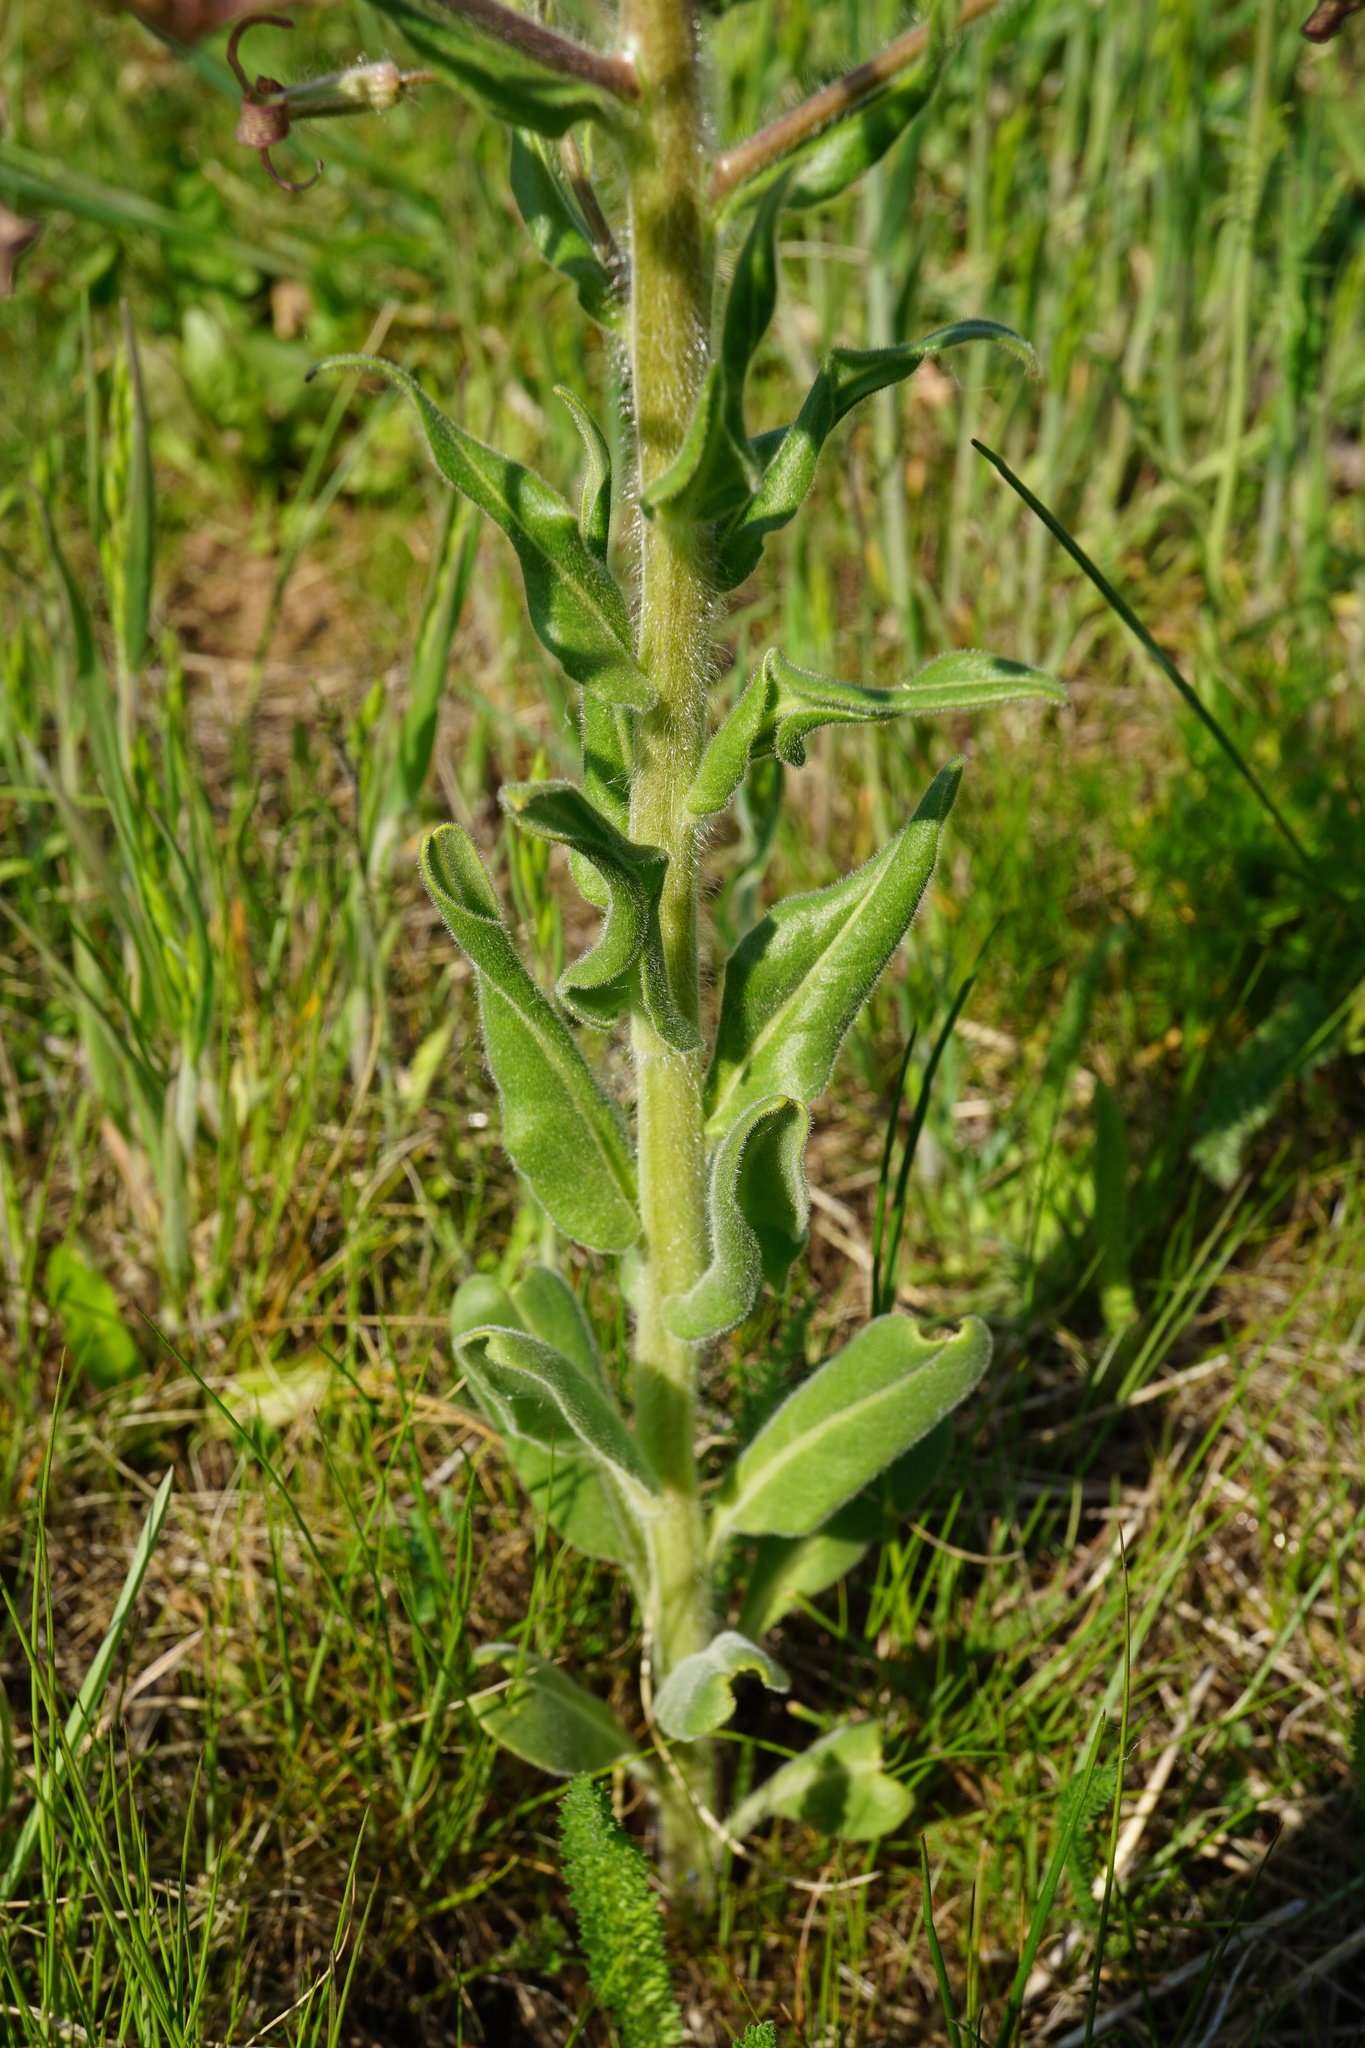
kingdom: Plantae
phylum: Tracheophyta
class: Magnoliopsida
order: Brassicales
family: Brassicaceae
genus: Hesperis
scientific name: Hesperis tristis
